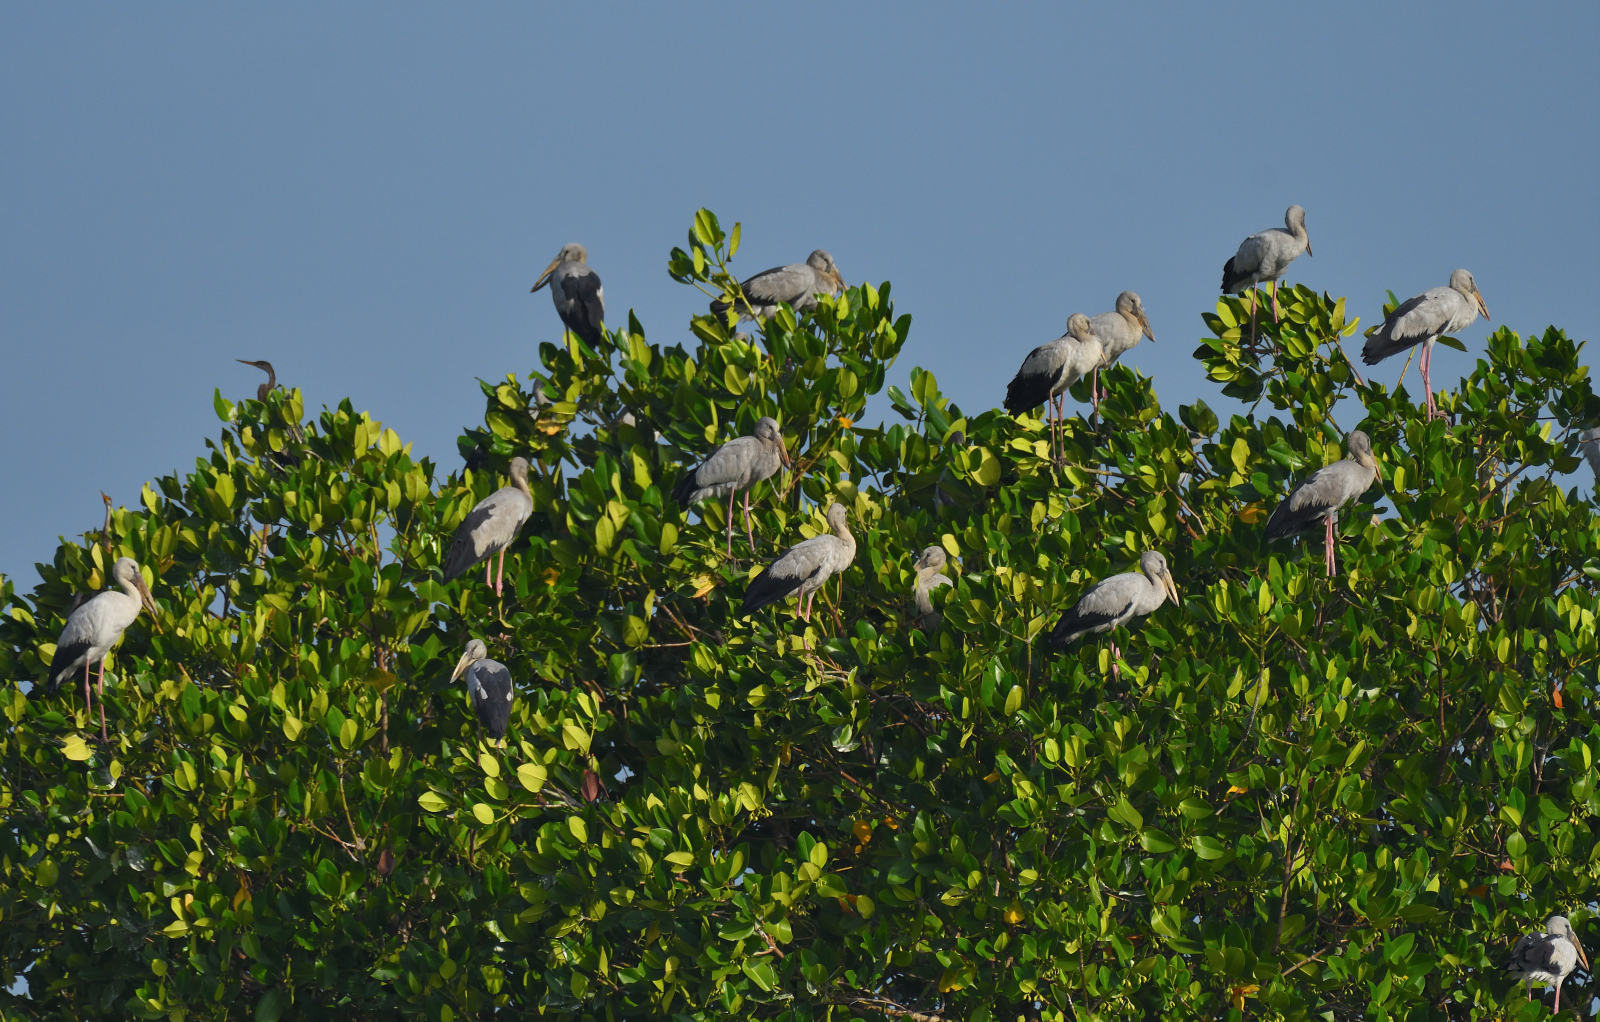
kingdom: Animalia
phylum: Chordata
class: Aves
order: Ciconiiformes
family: Ciconiidae
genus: Anastomus
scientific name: Anastomus oscitans
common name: Asian openbill
